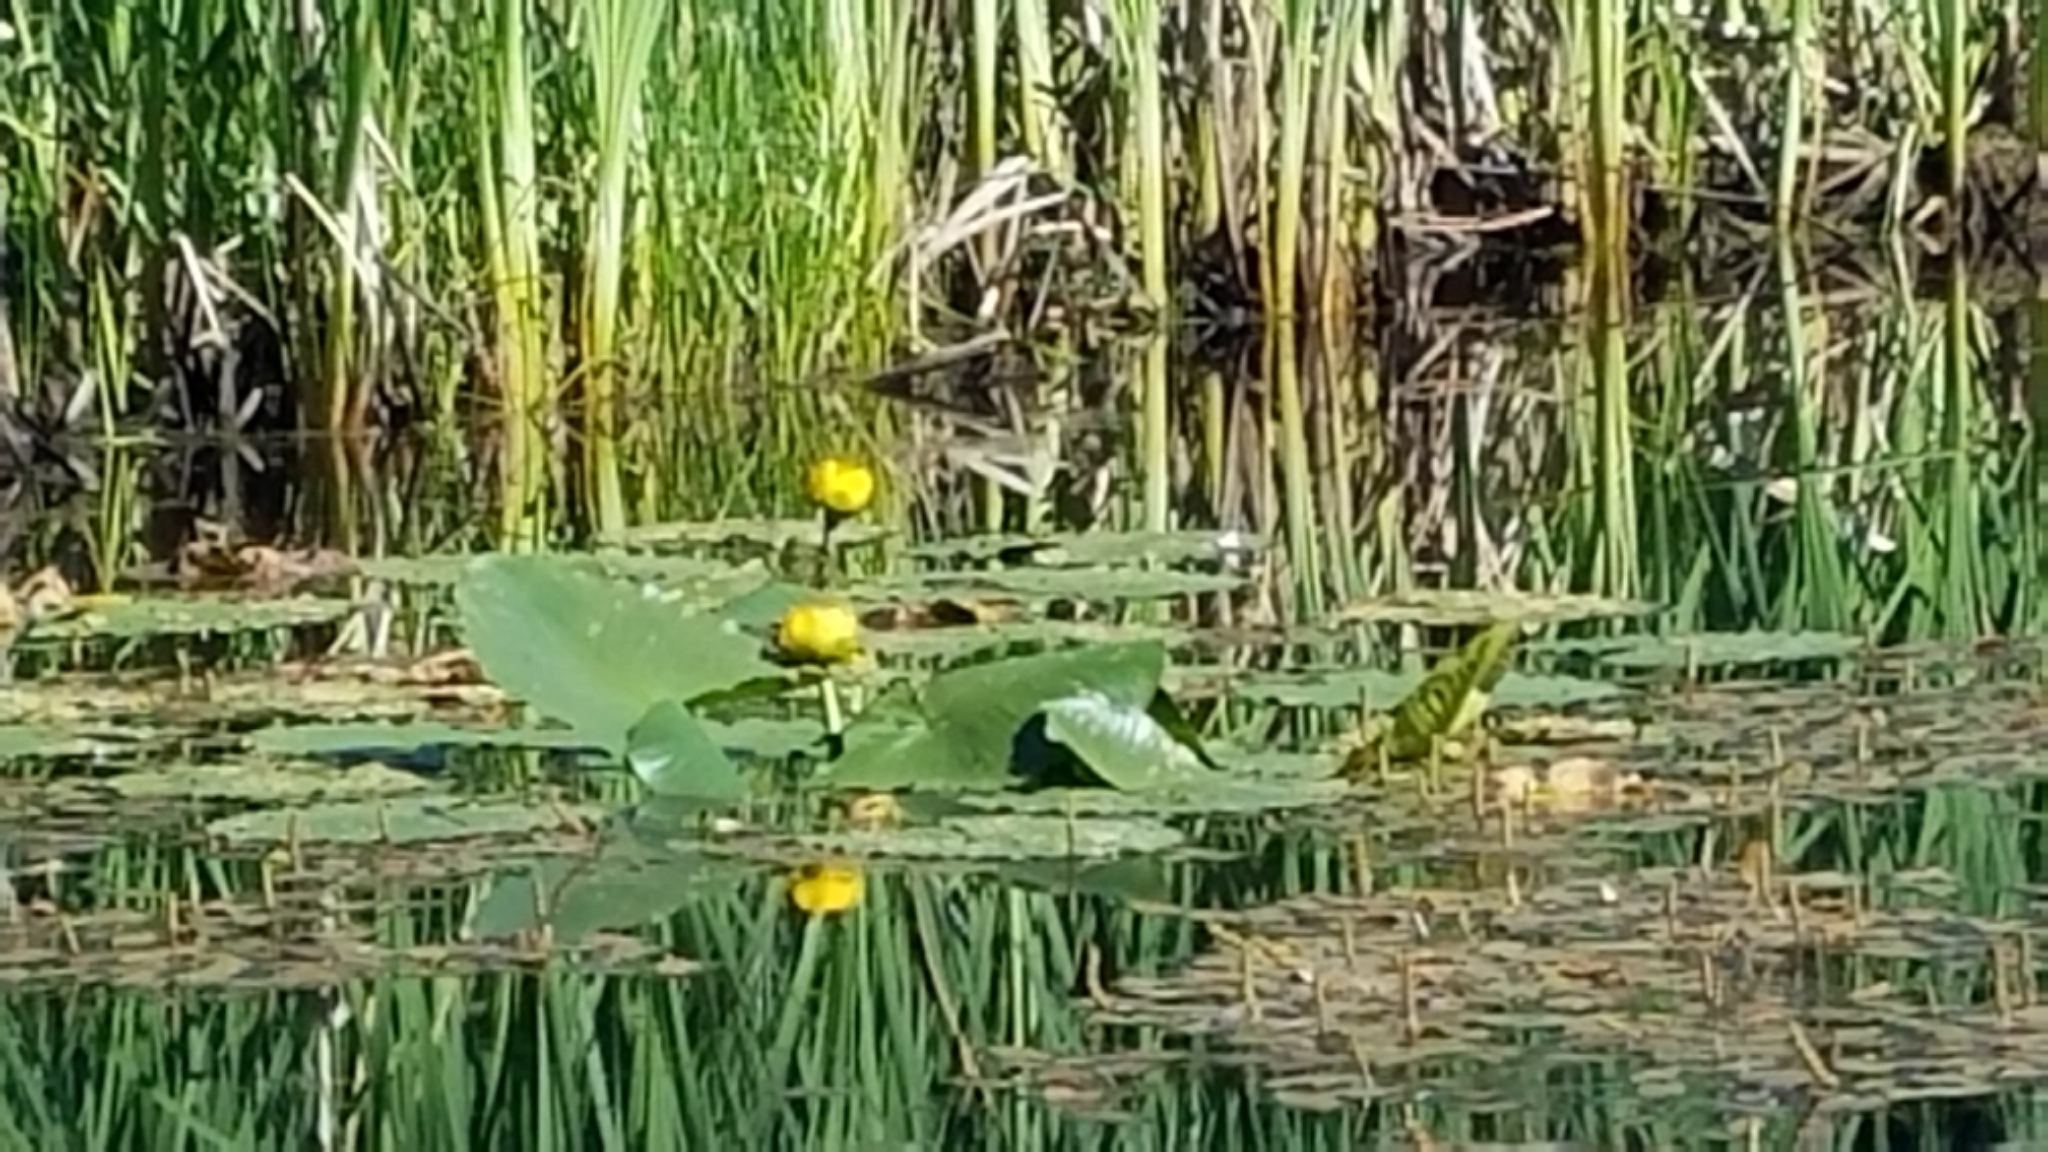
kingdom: Plantae
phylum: Tracheophyta
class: Magnoliopsida
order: Nymphaeales
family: Nymphaeaceae
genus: Nuphar
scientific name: Nuphar polysepala
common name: Rocky mountain cow-lily
